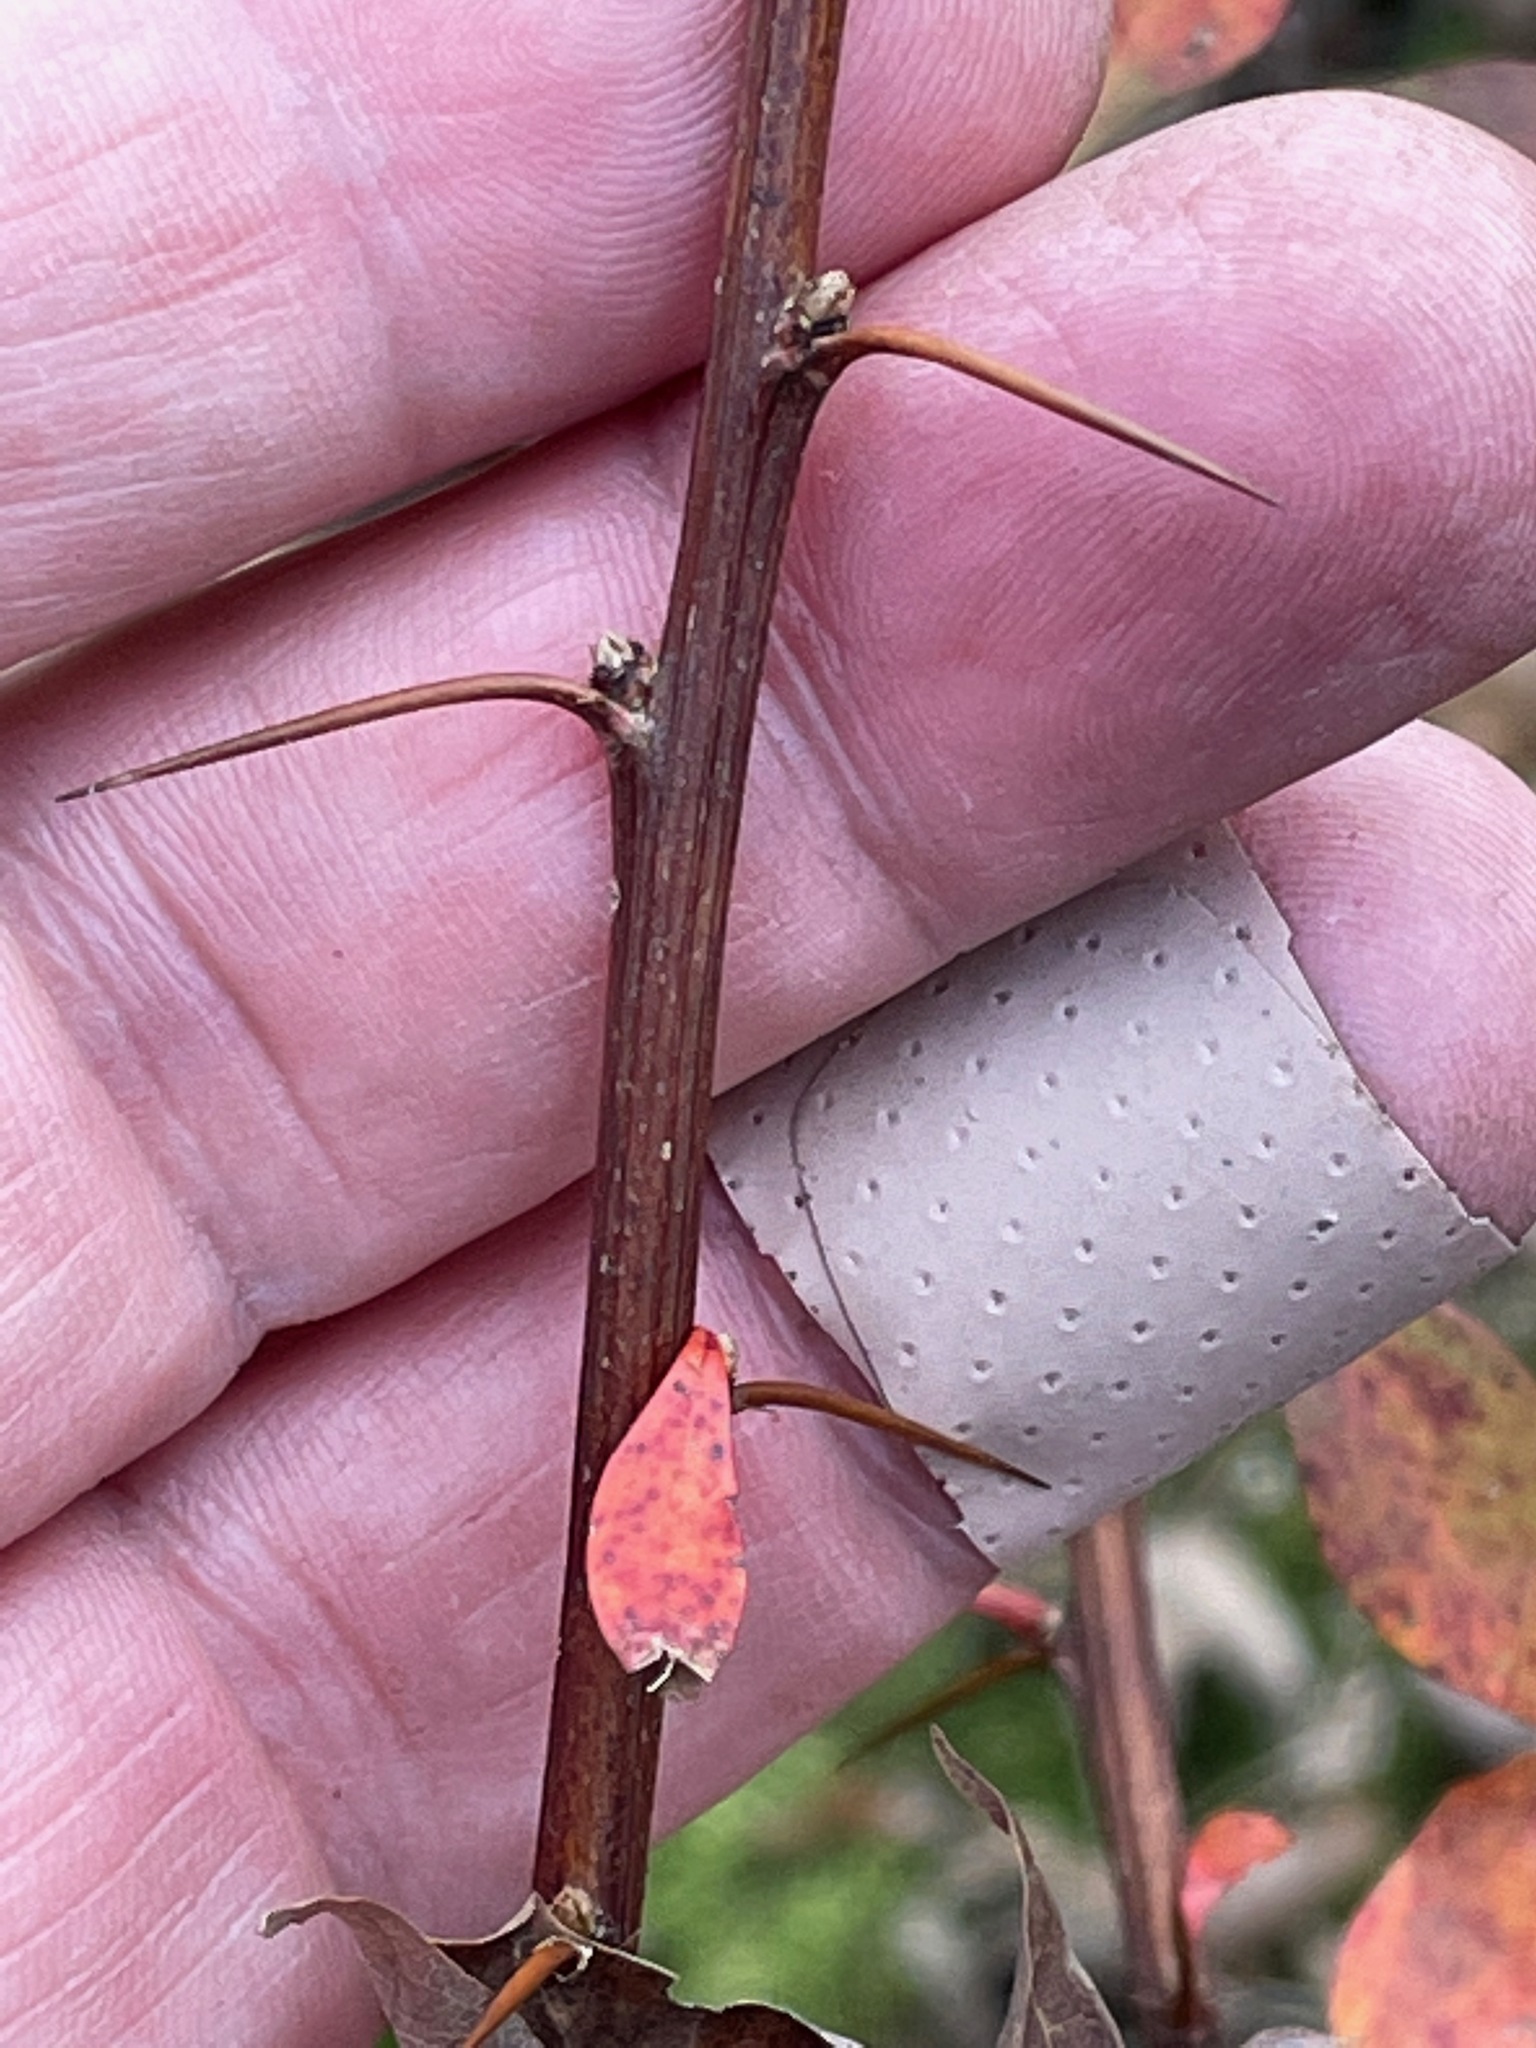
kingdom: Plantae
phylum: Tracheophyta
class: Magnoliopsida
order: Ranunculales
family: Berberidaceae
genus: Berberis
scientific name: Berberis thunbergii
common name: Japanese barberry
